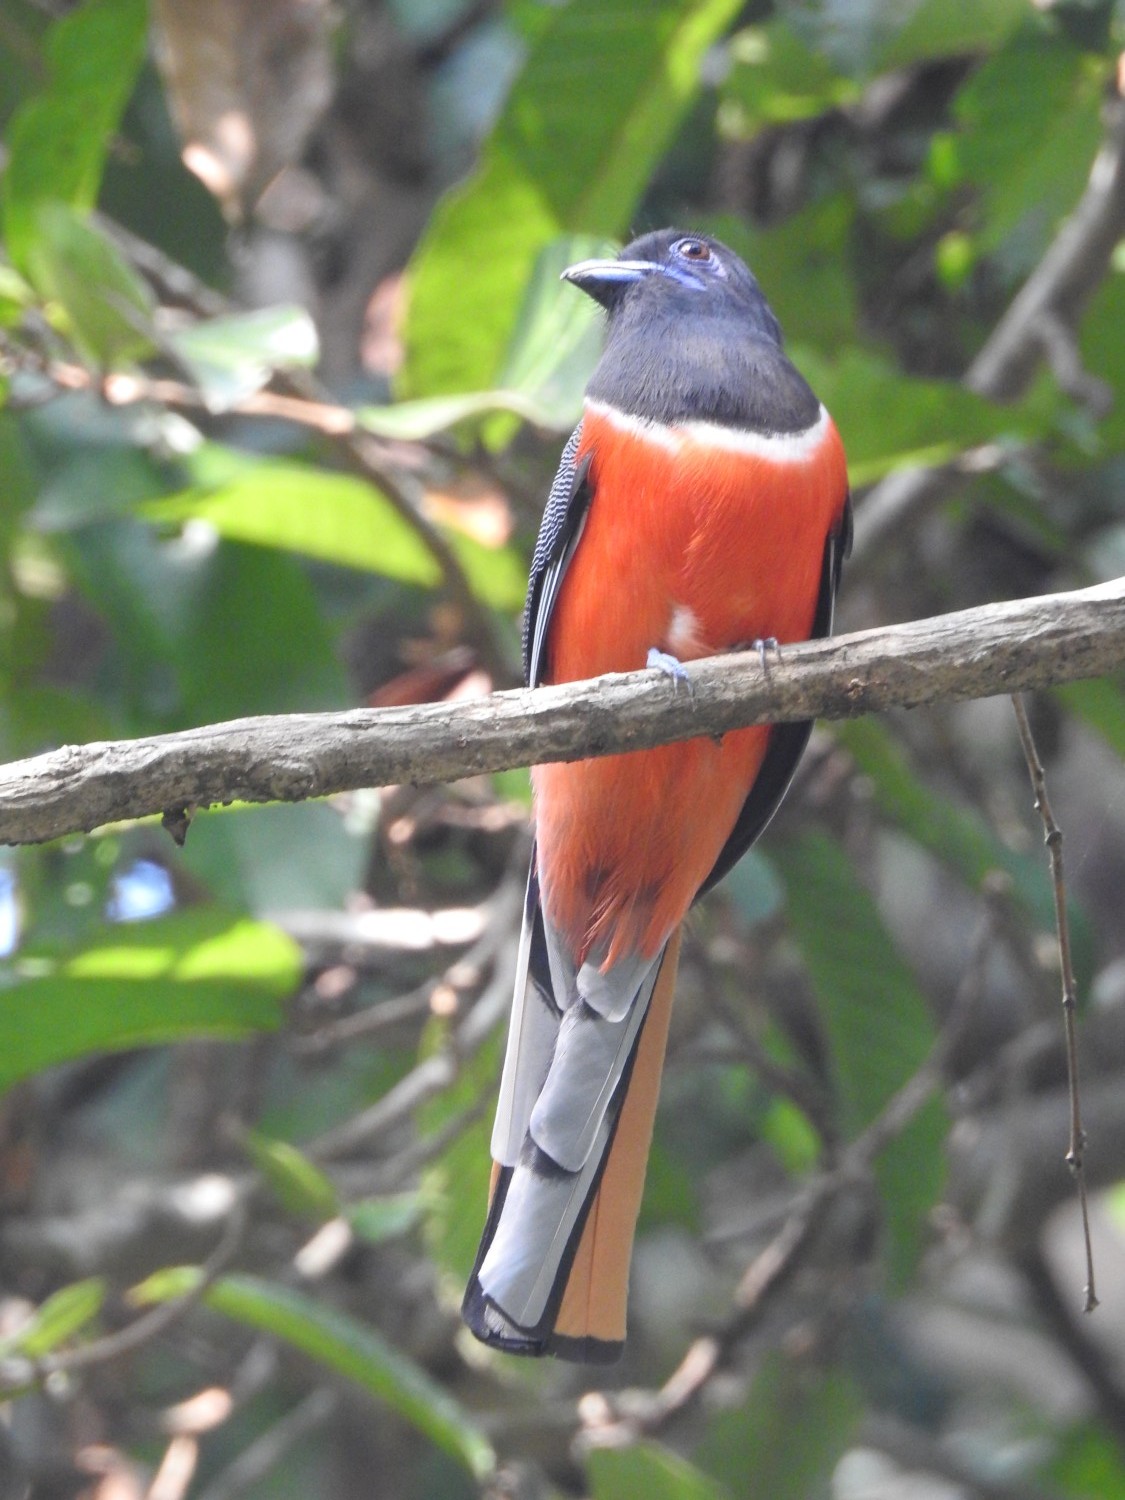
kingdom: Animalia
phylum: Chordata
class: Aves
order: Trogoniformes
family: Trogonidae
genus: Harpactes
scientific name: Harpactes fasciatus
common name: Malabar trogon
